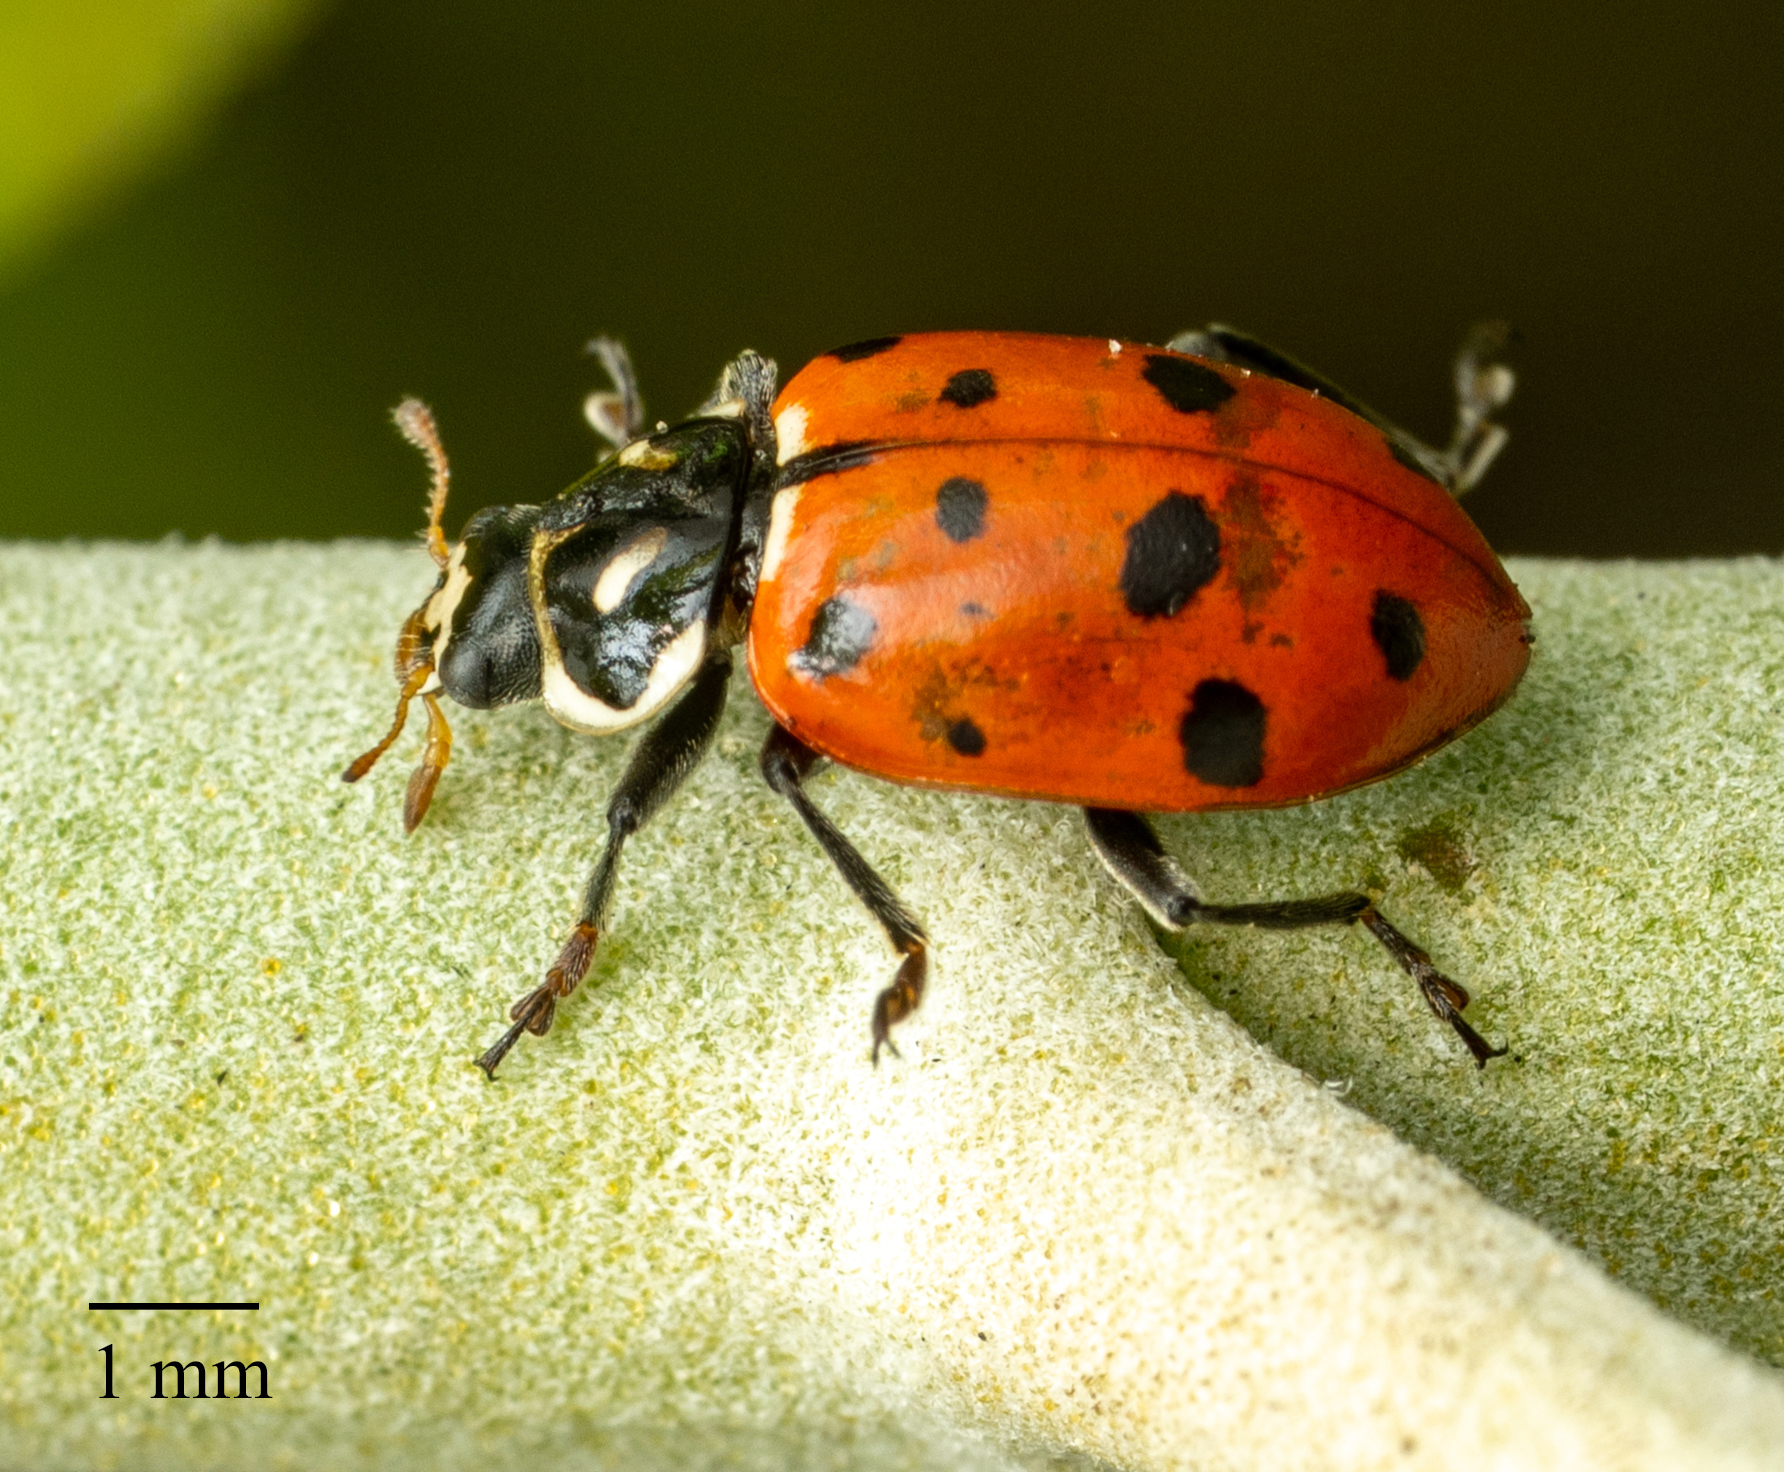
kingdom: Animalia
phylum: Arthropoda
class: Insecta
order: Coleoptera
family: Coccinellidae
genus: Hippodamia
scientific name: Hippodamia convergens
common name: Convergent lady beetle
